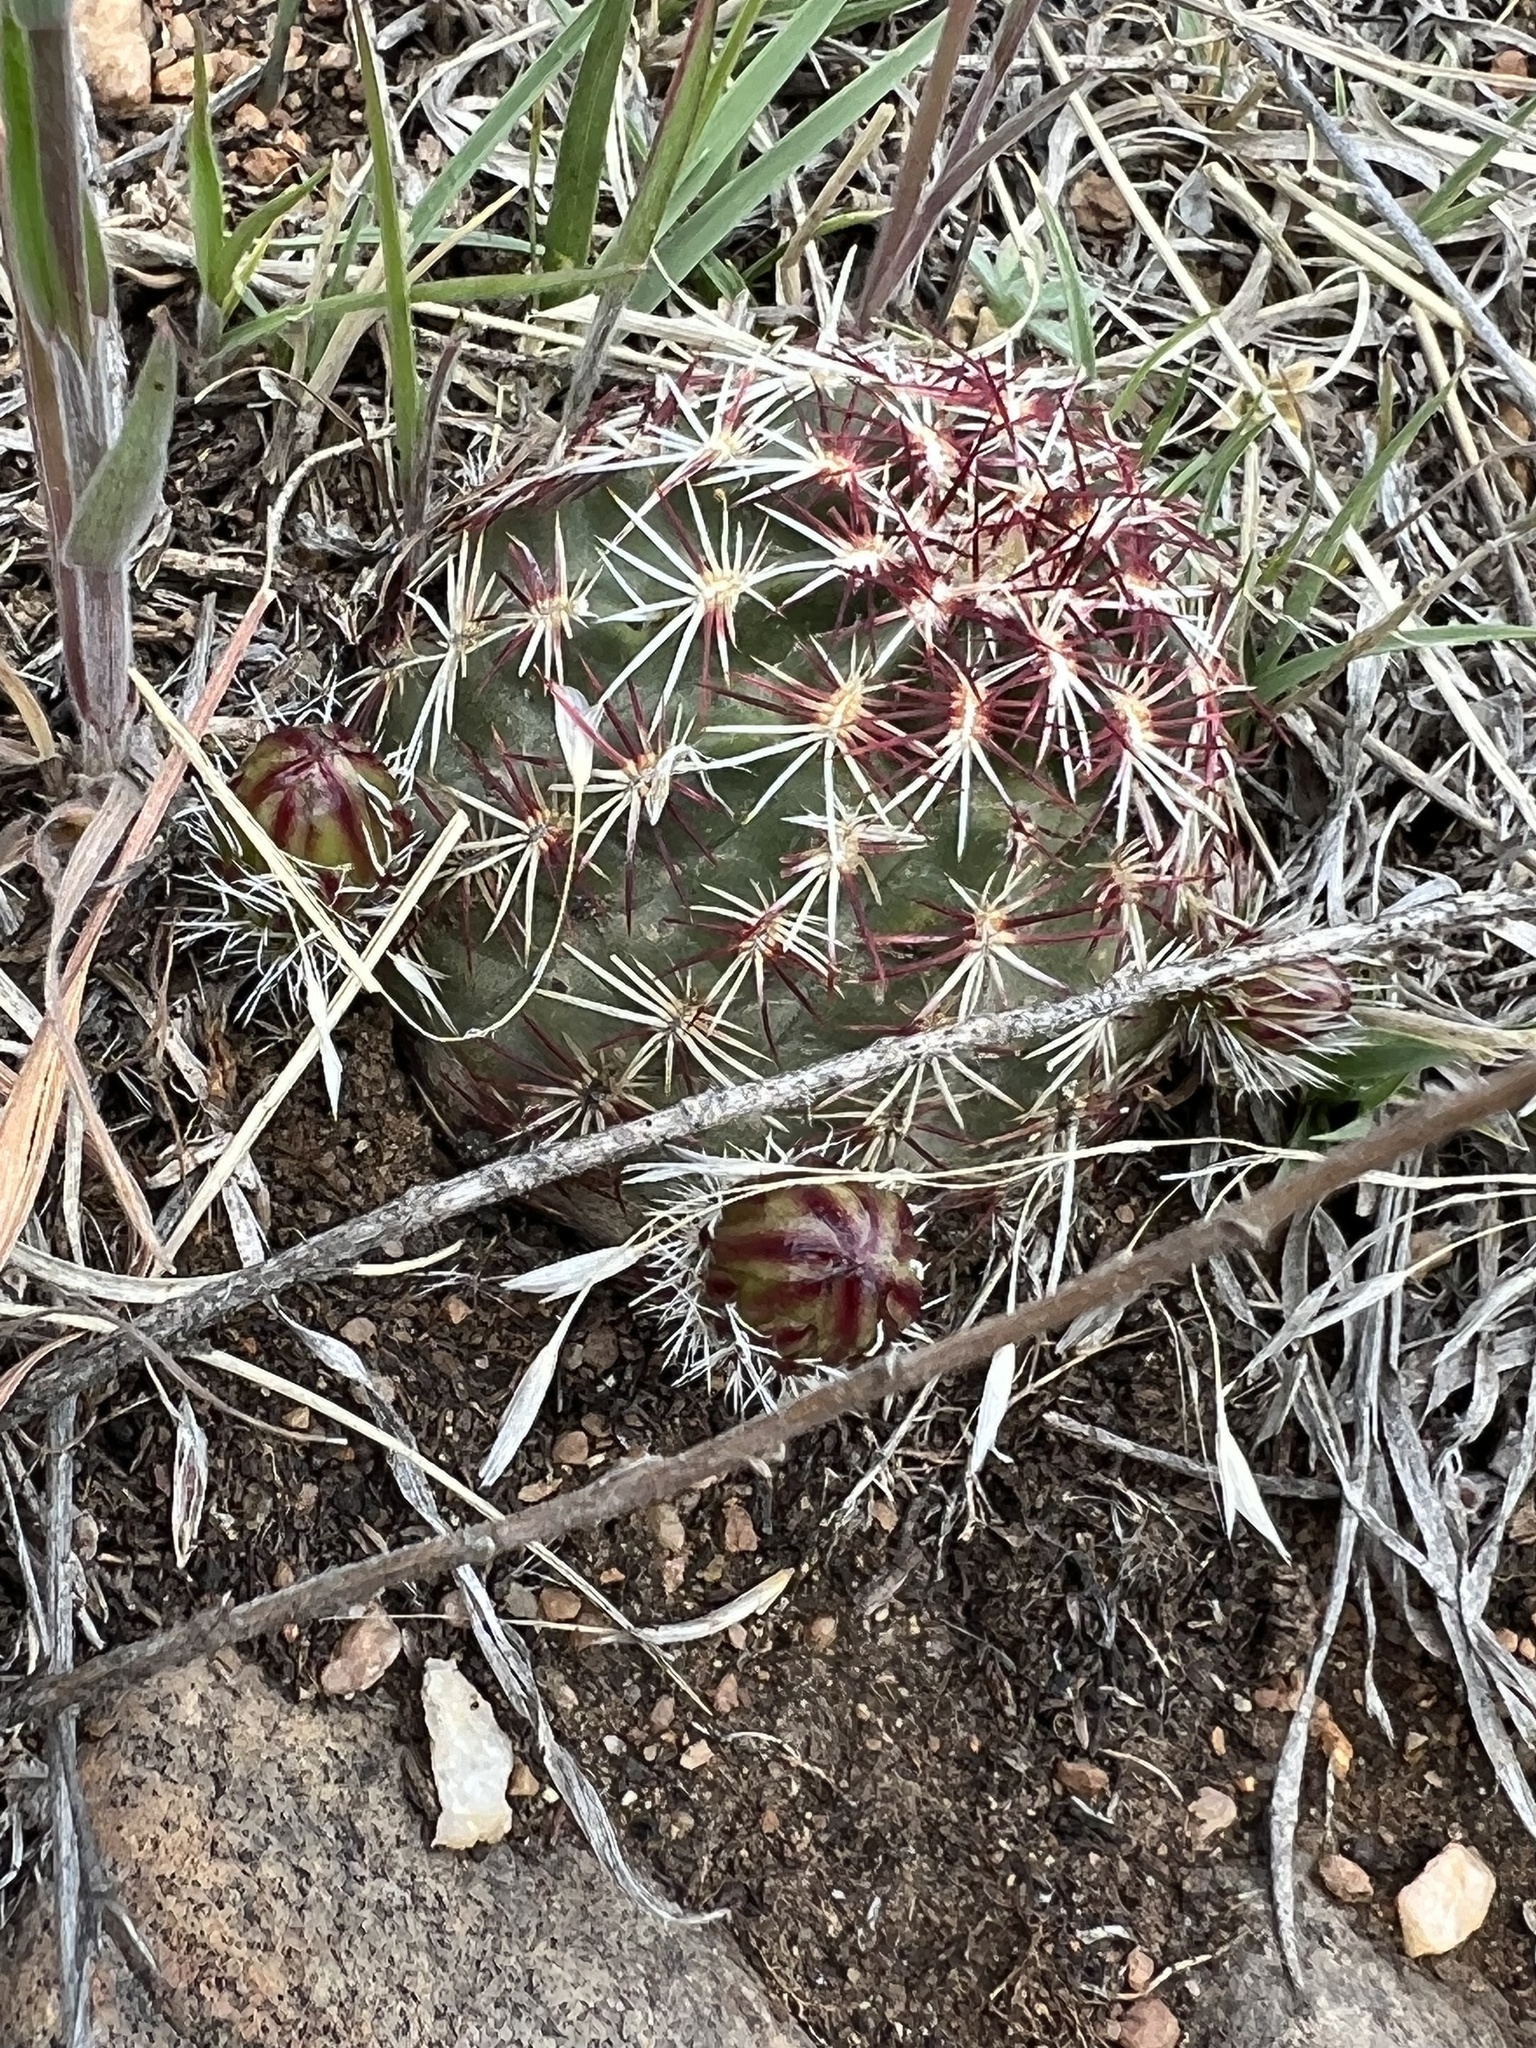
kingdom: Plantae
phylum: Tracheophyta
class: Magnoliopsida
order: Caryophyllales
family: Cactaceae
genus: Echinocereus
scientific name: Echinocereus viridiflorus
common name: Nylon hedgehog cactus
